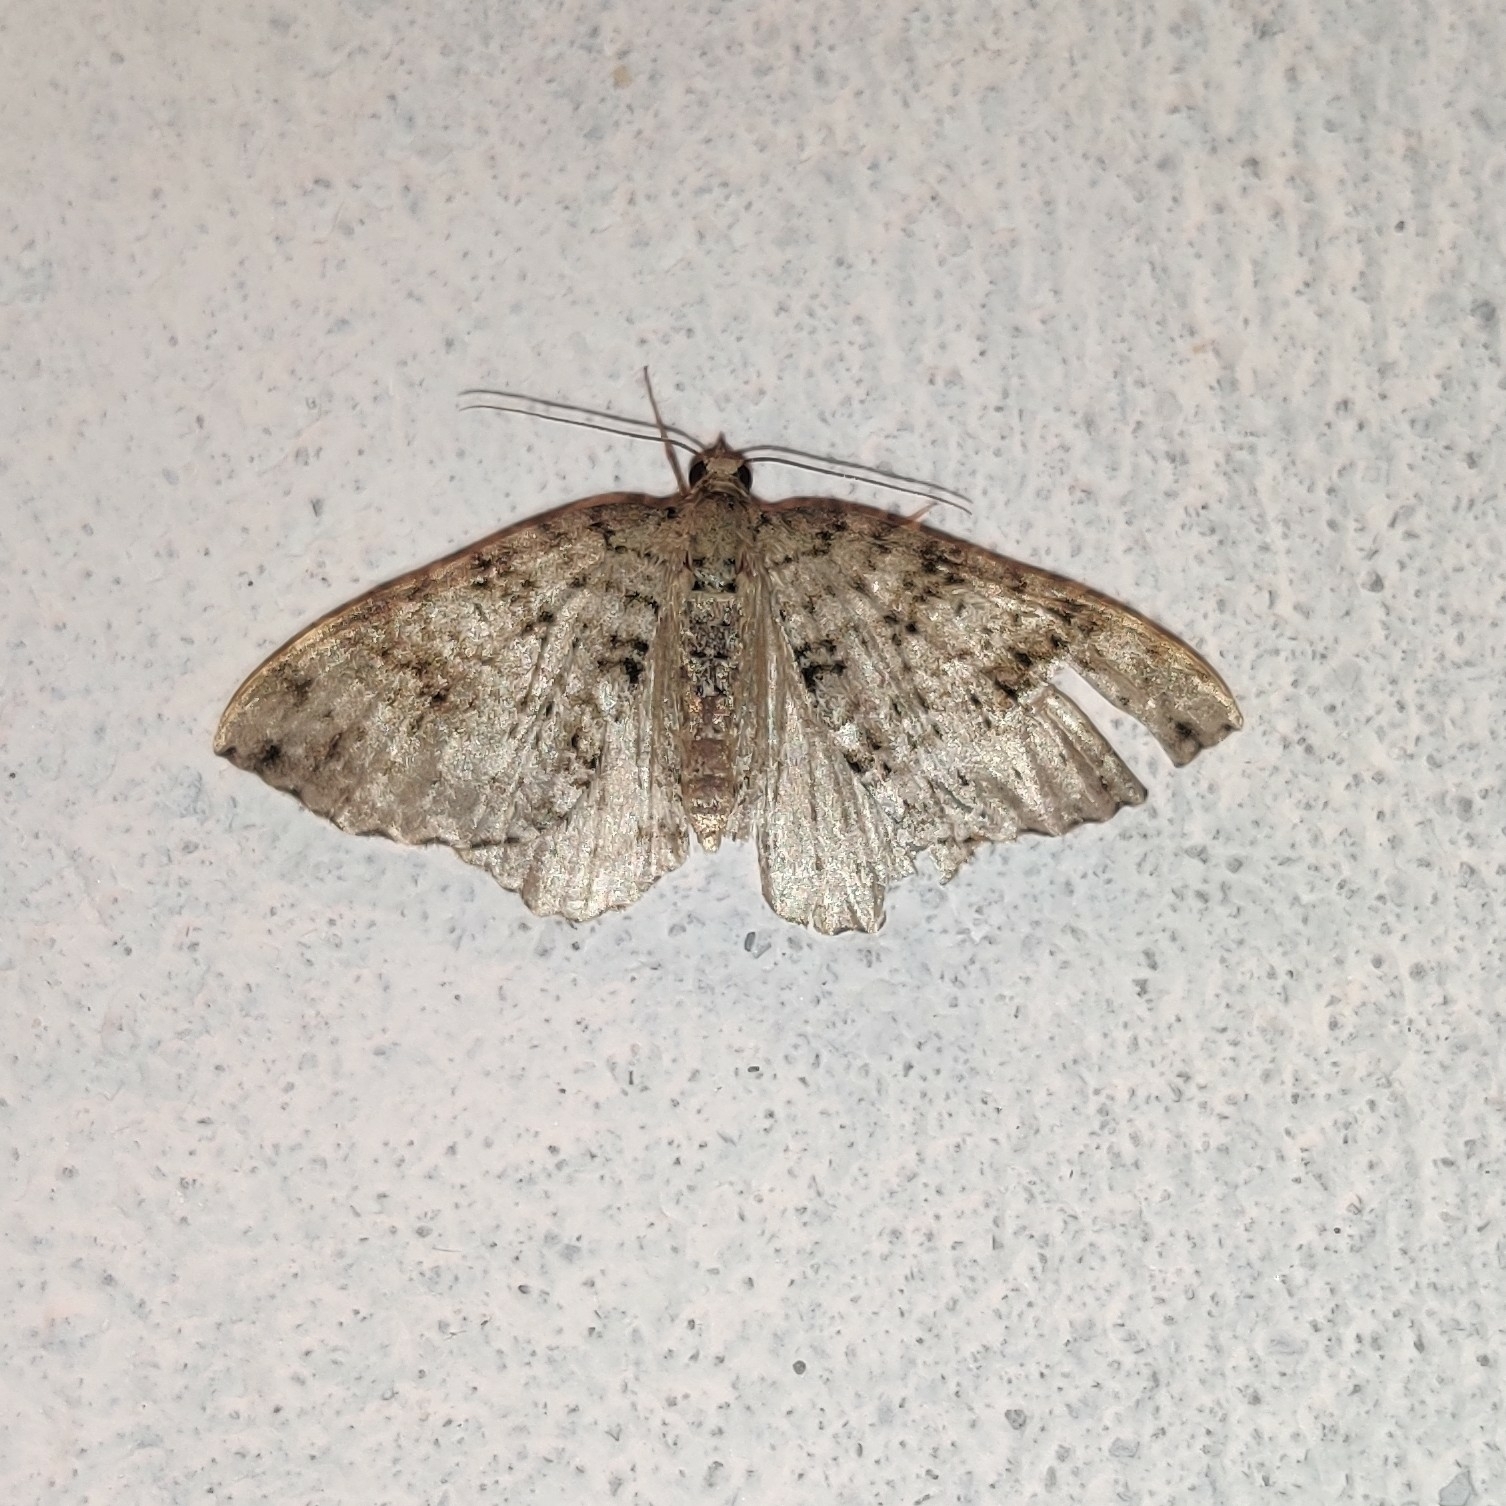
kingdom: Animalia
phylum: Arthropoda
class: Insecta
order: Lepidoptera
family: Geometridae
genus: Atopophysa
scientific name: Atopophysa indistincta
